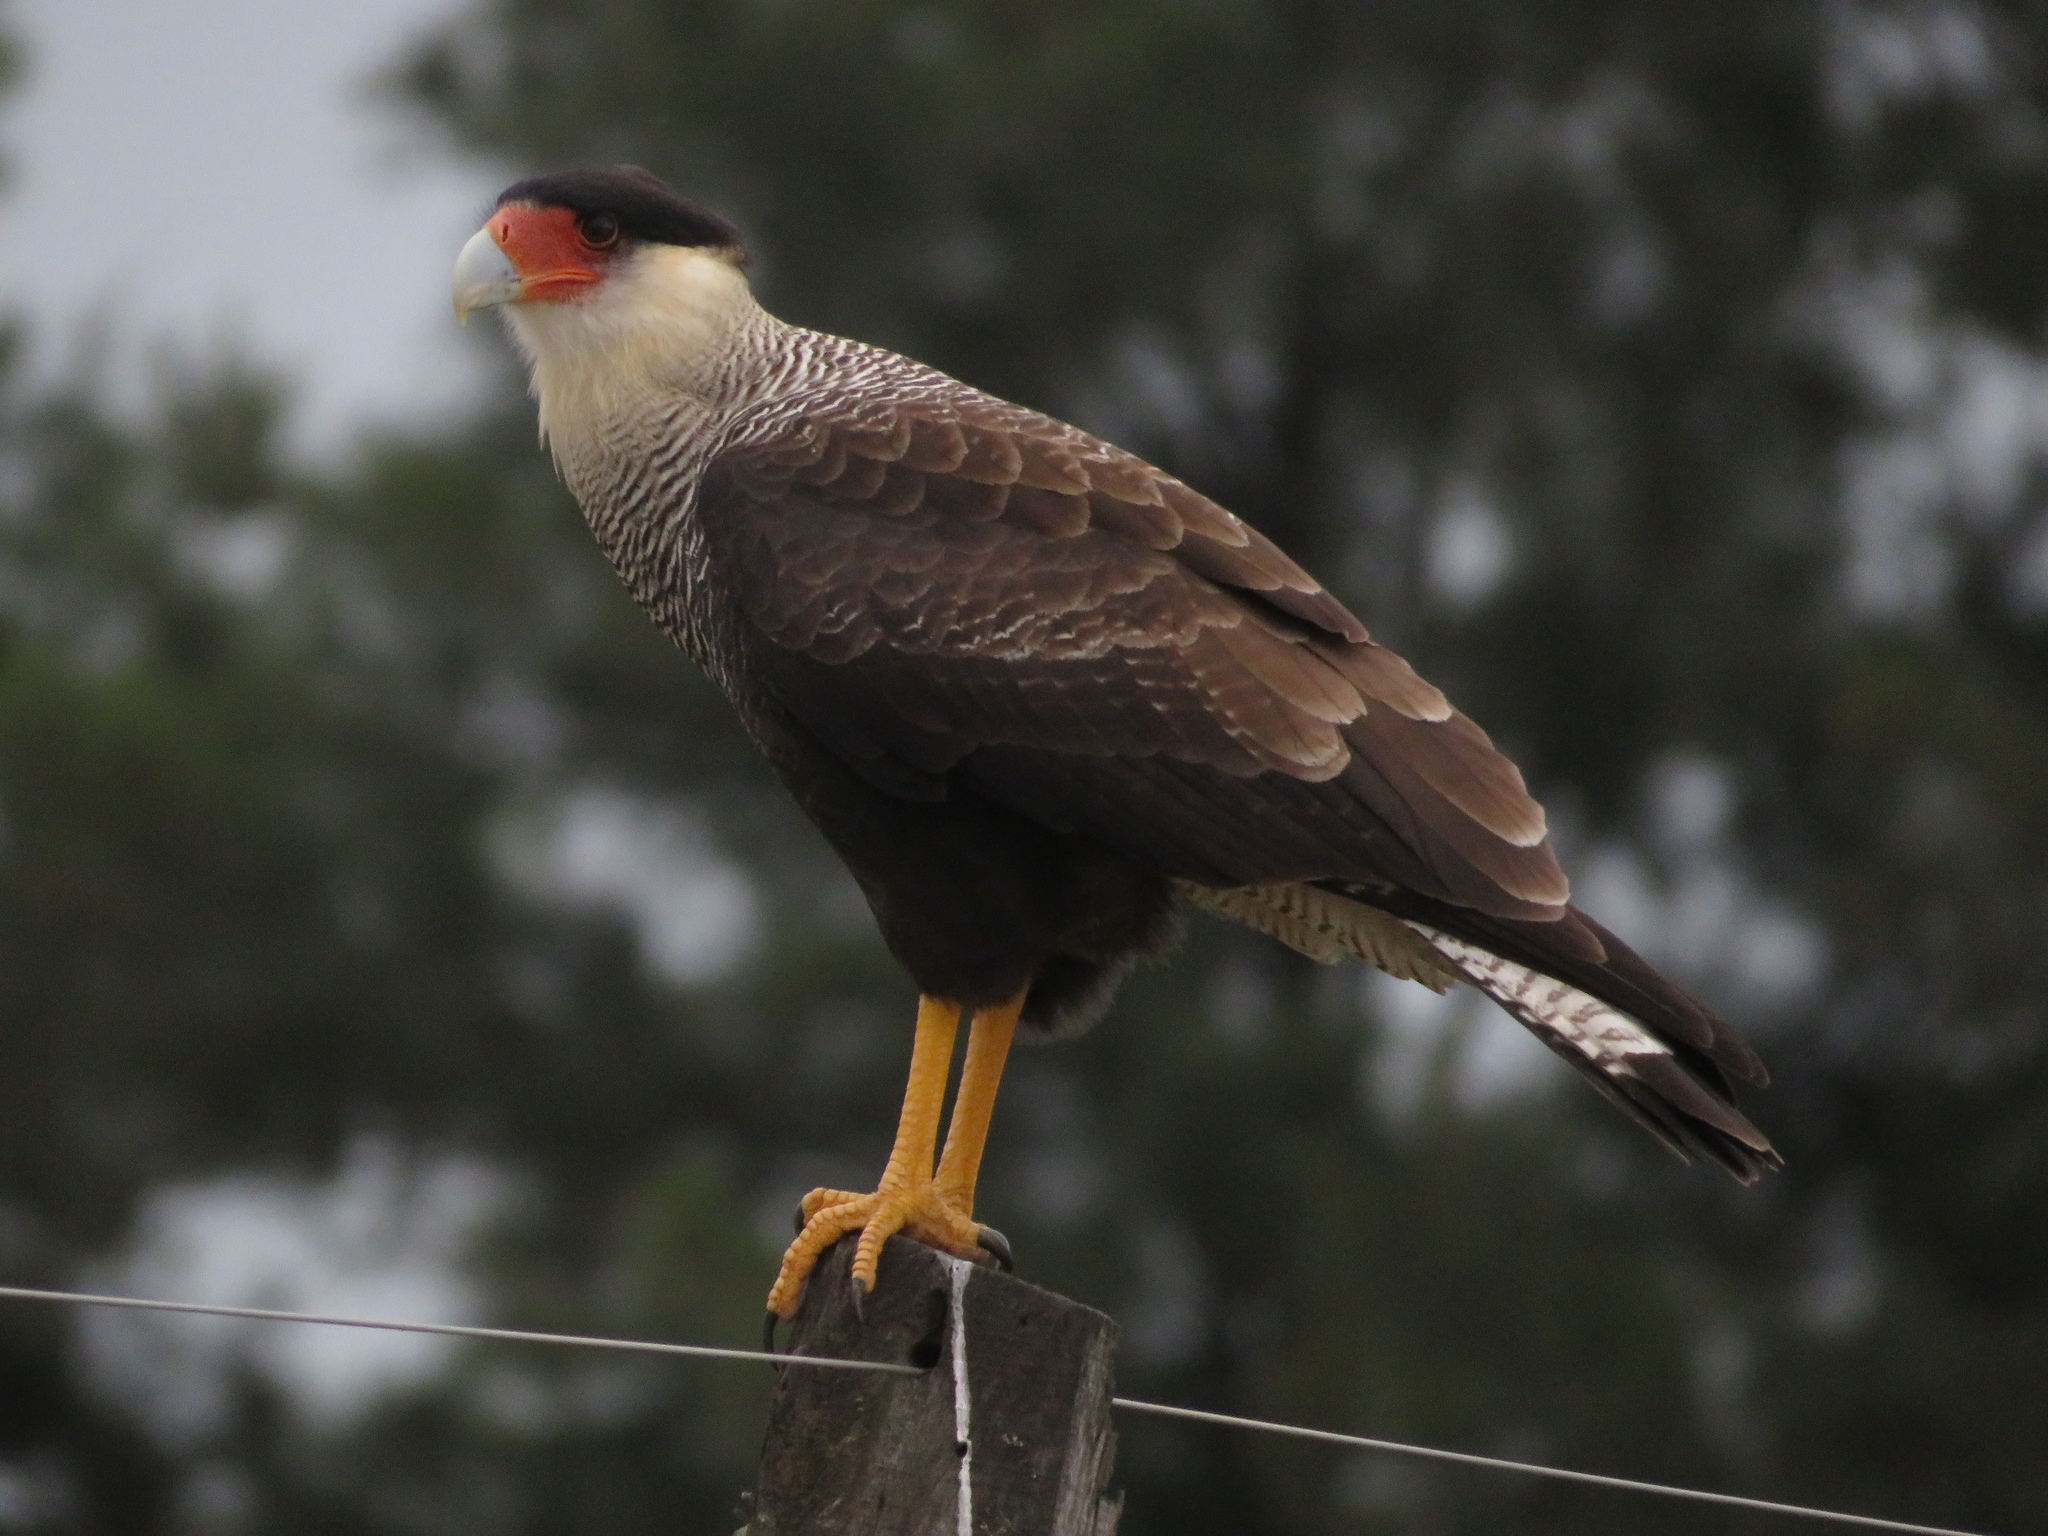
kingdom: Animalia
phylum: Chordata
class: Aves
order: Falconiformes
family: Falconidae
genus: Caracara
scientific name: Caracara plancus
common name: Southern caracara
